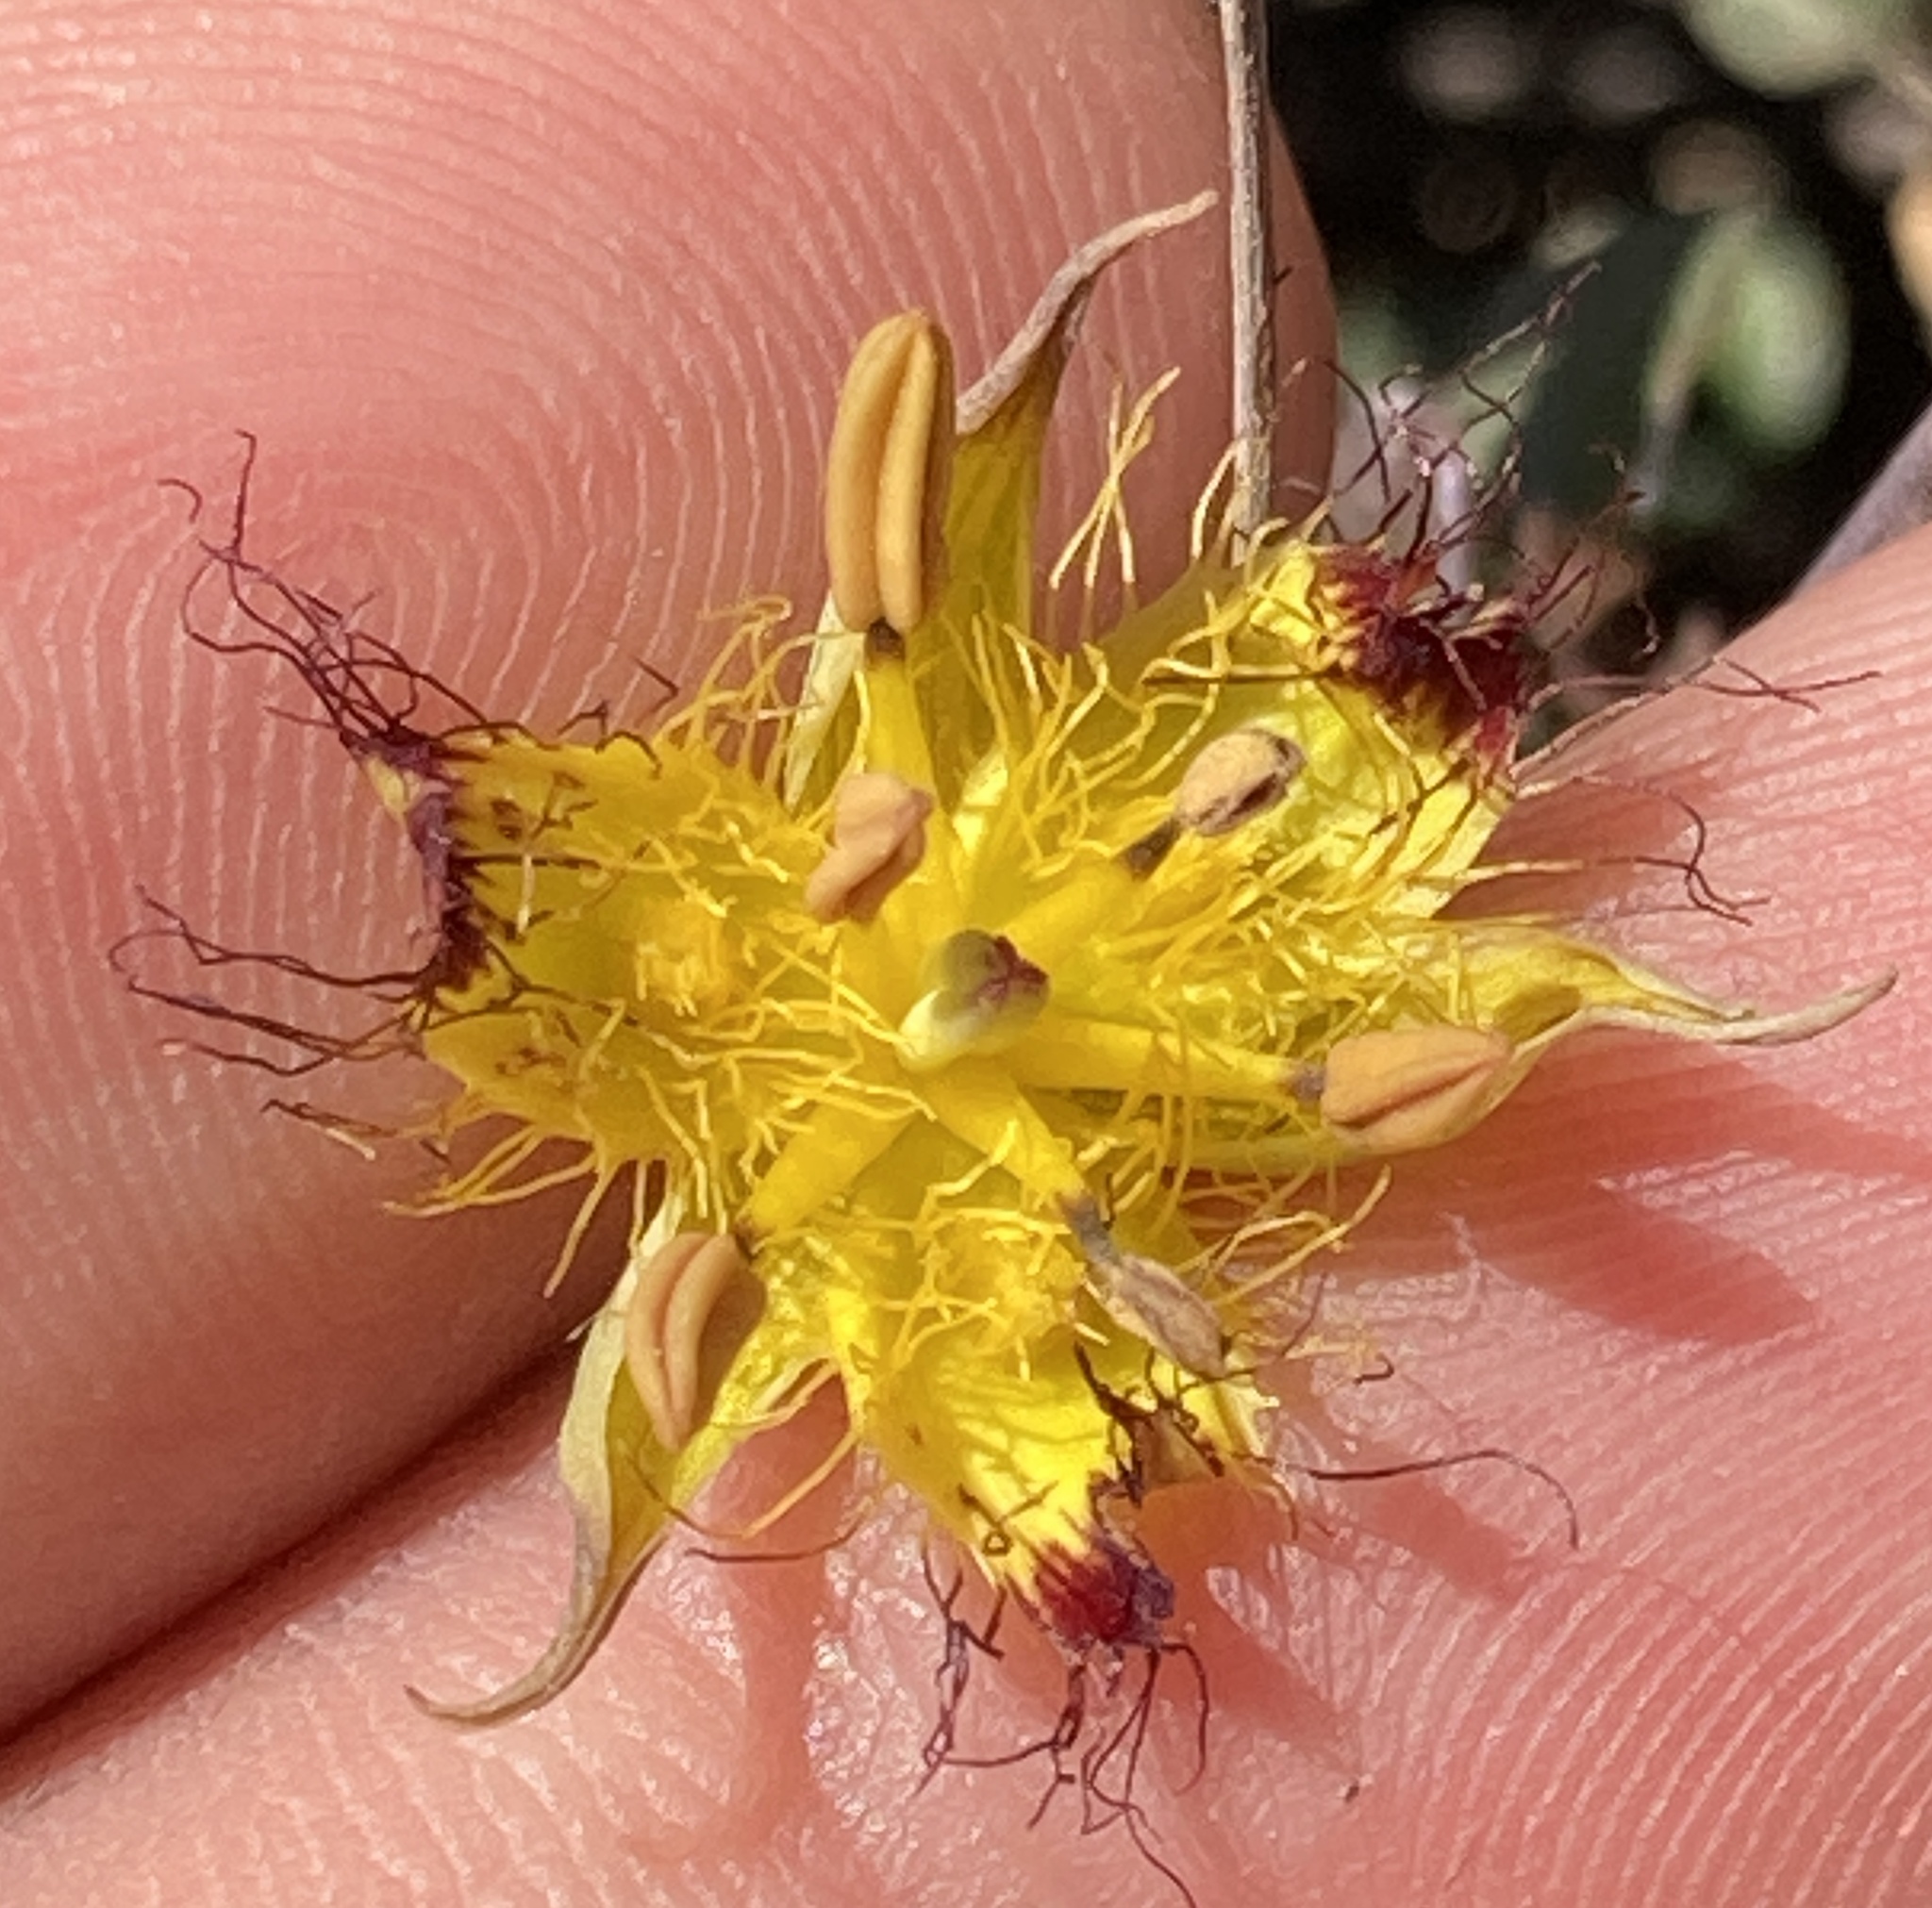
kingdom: Plantae
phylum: Tracheophyta
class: Liliopsida
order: Liliales
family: Liliaceae
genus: Calochortus
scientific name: Calochortus obispoensis
